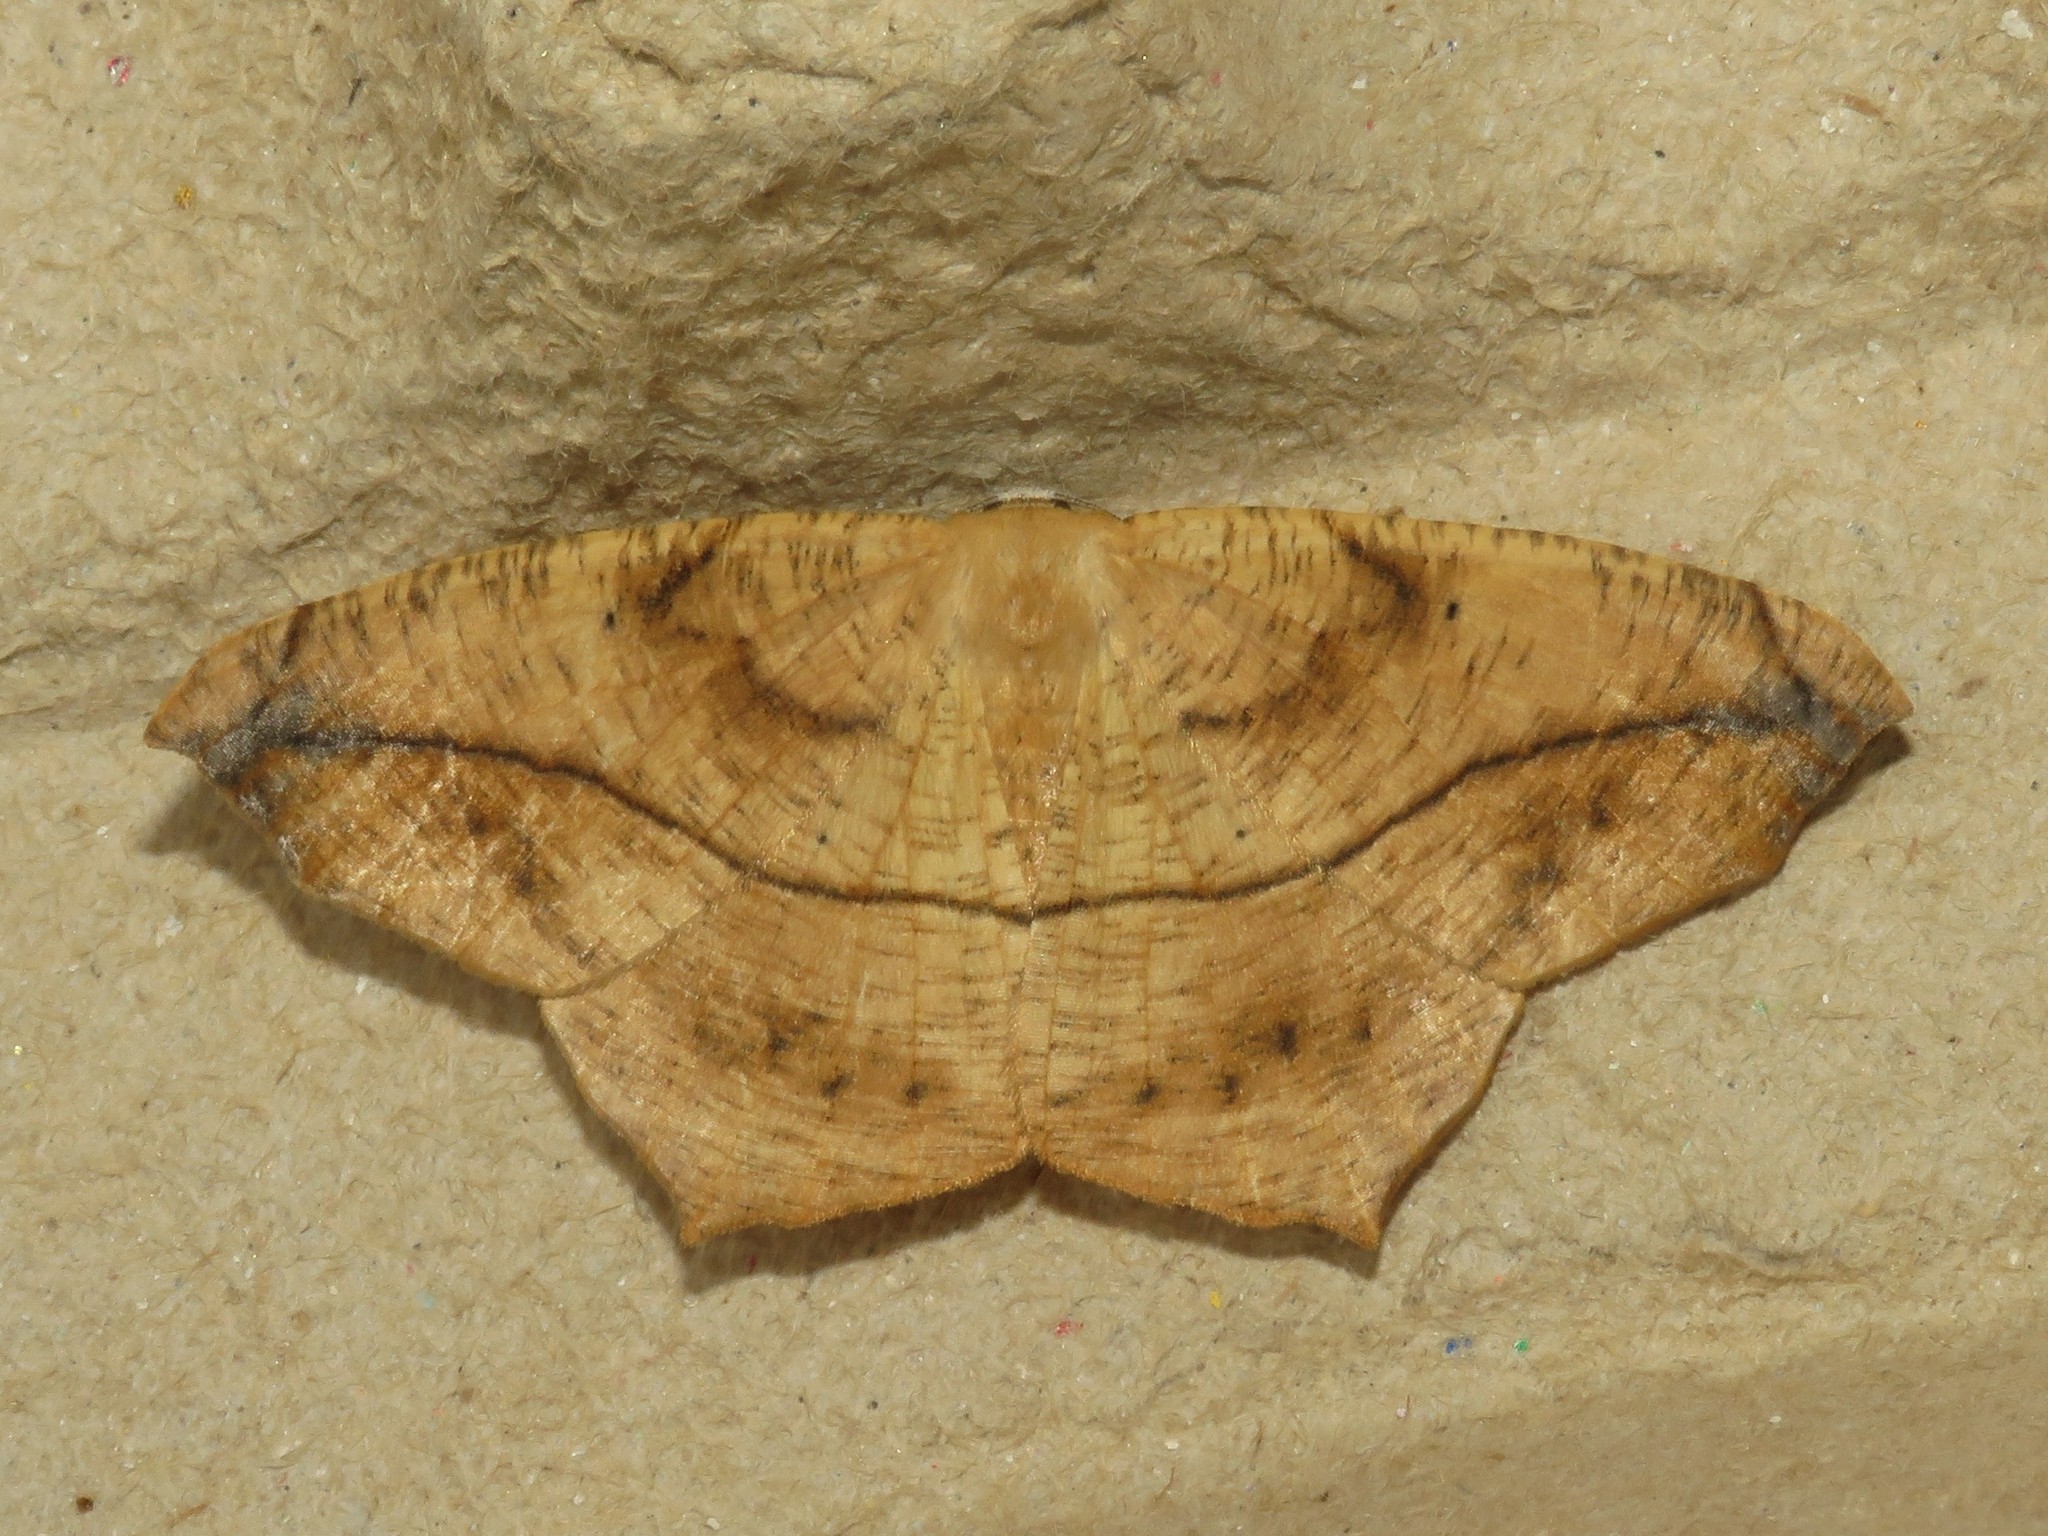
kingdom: Animalia
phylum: Arthropoda
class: Insecta
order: Lepidoptera
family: Geometridae
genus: Prochoerodes
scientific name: Prochoerodes lineola
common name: Large maple spanworm
